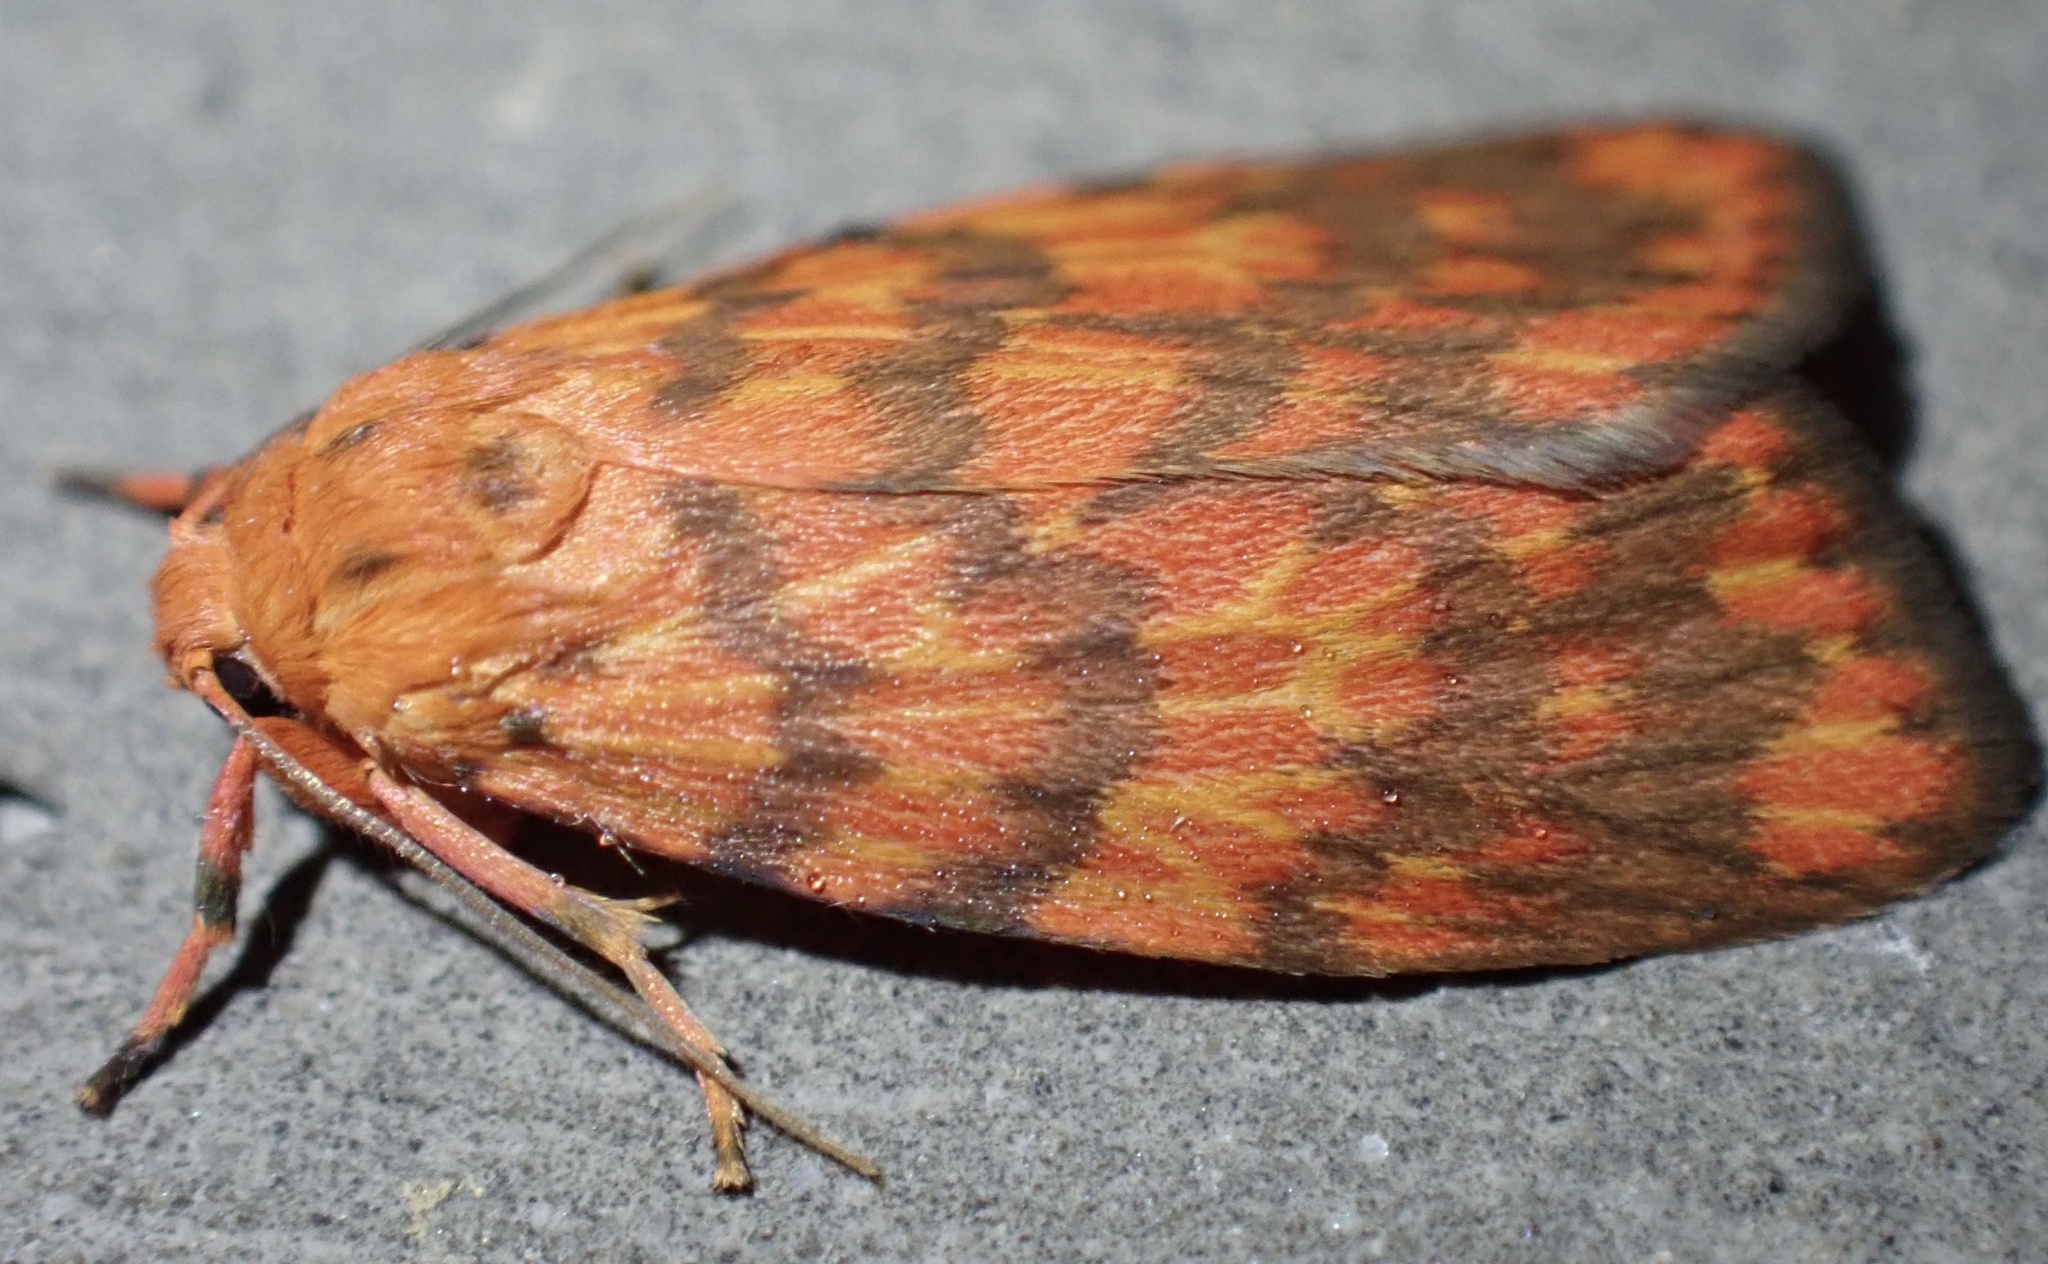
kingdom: Animalia
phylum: Arthropoda
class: Insecta
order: Lepidoptera
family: Erebidae
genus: Cyme
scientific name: Cyme aroa
